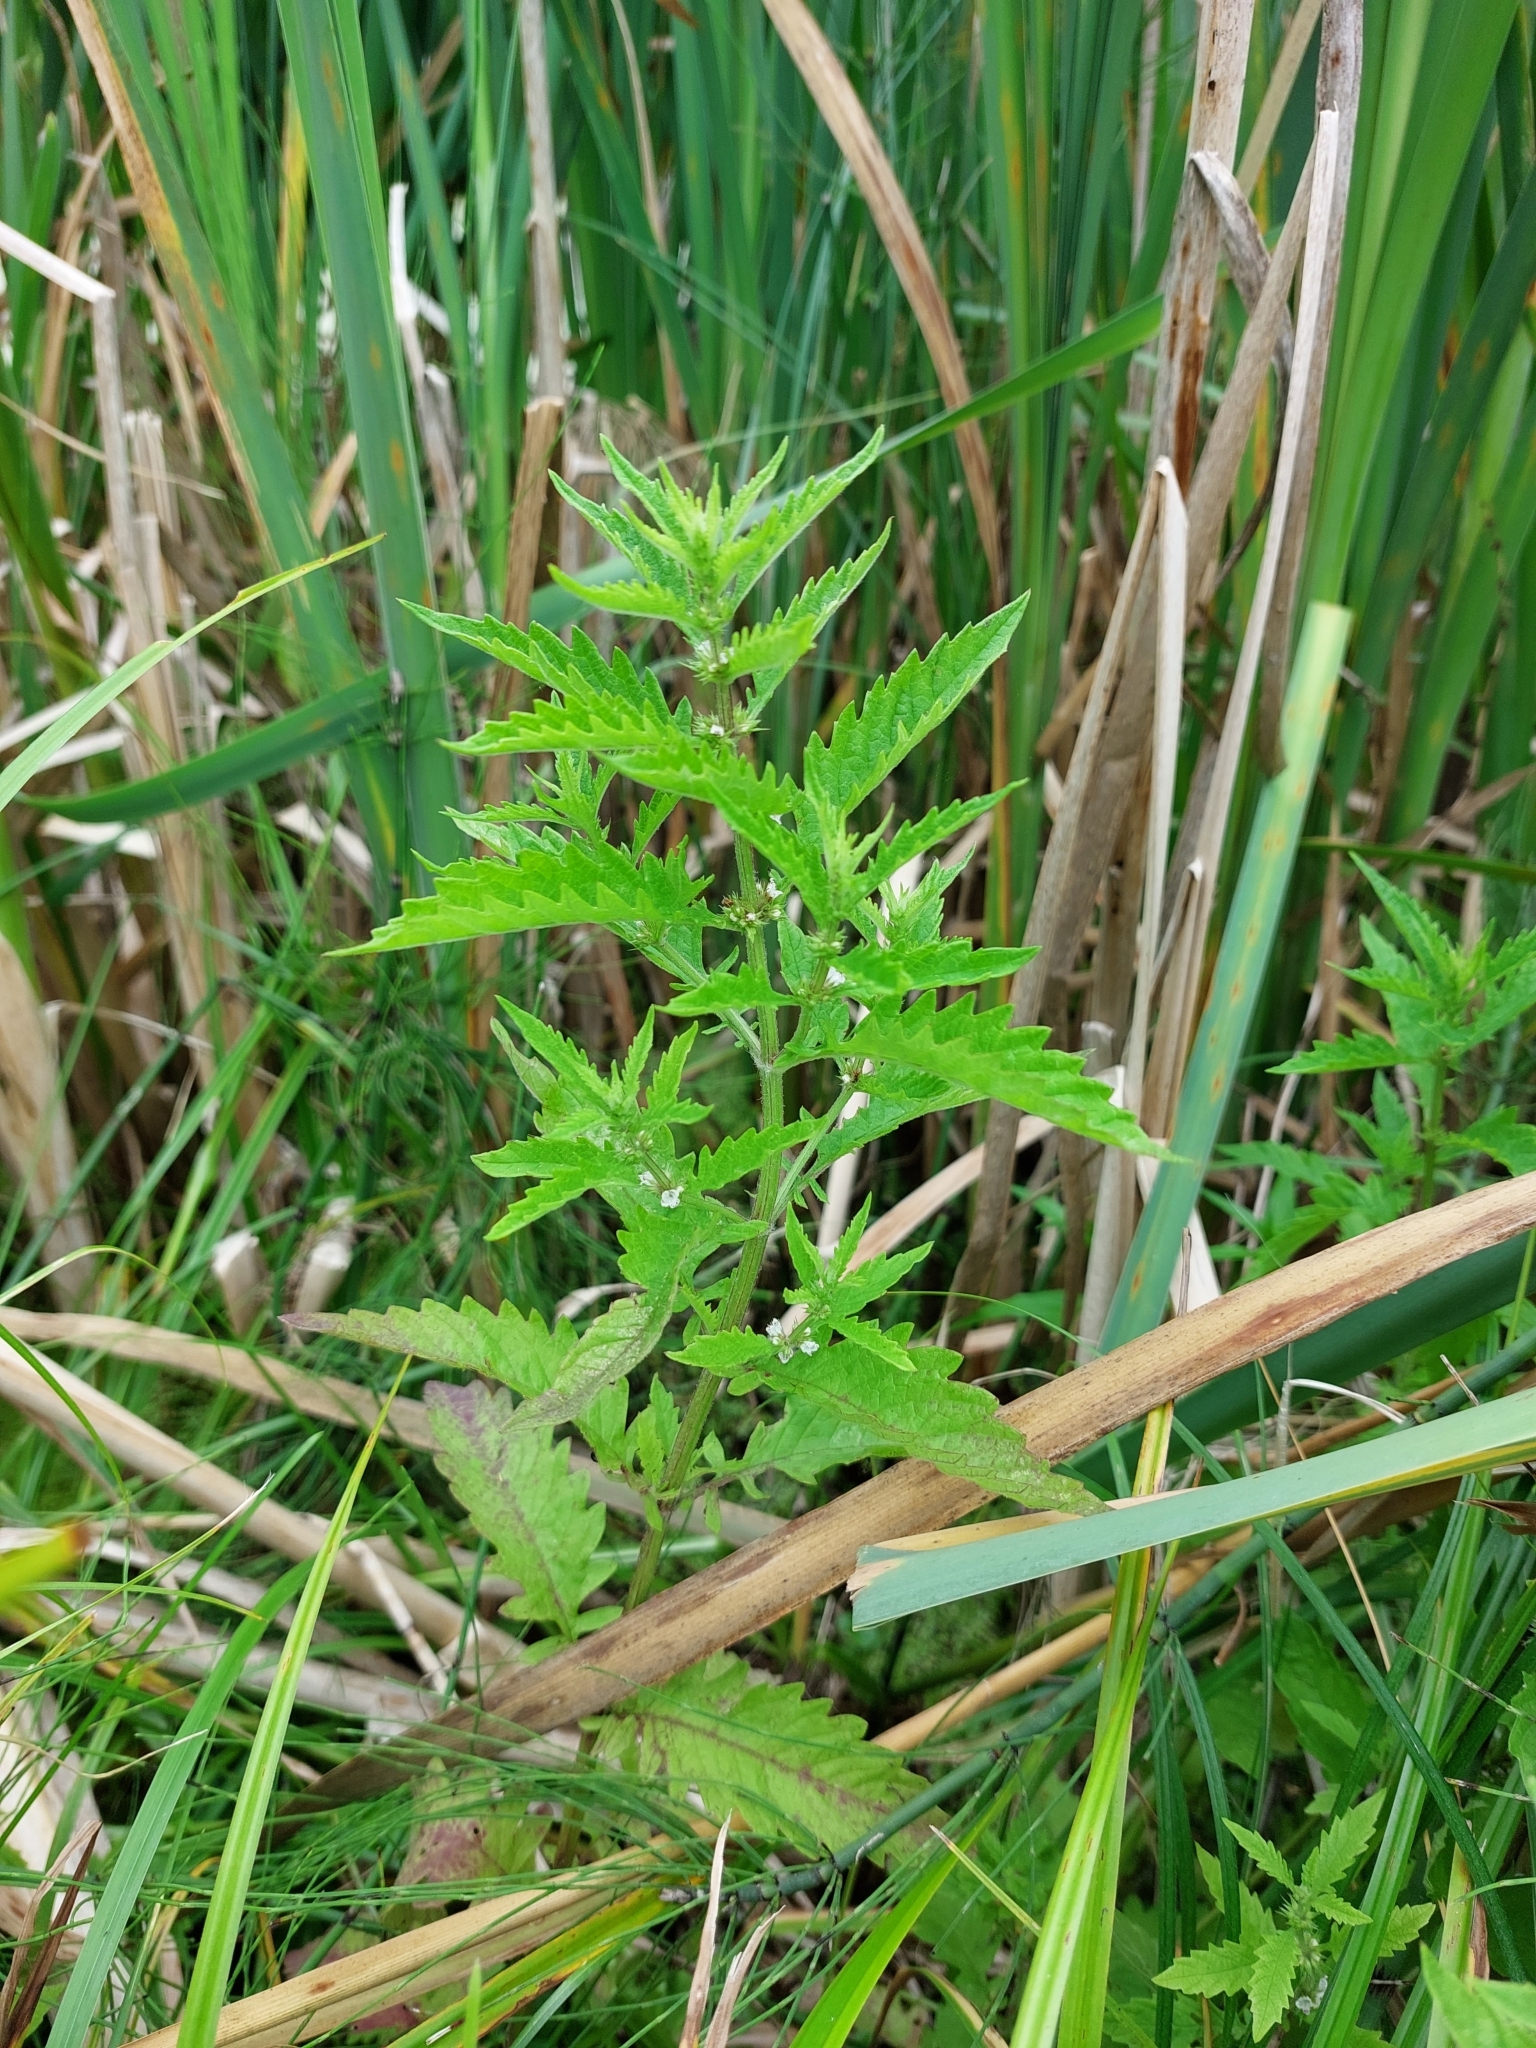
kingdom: Plantae
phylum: Tracheophyta
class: Magnoliopsida
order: Lamiales
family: Lamiaceae
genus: Lycopus
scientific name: Lycopus europaeus
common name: European bugleweed
